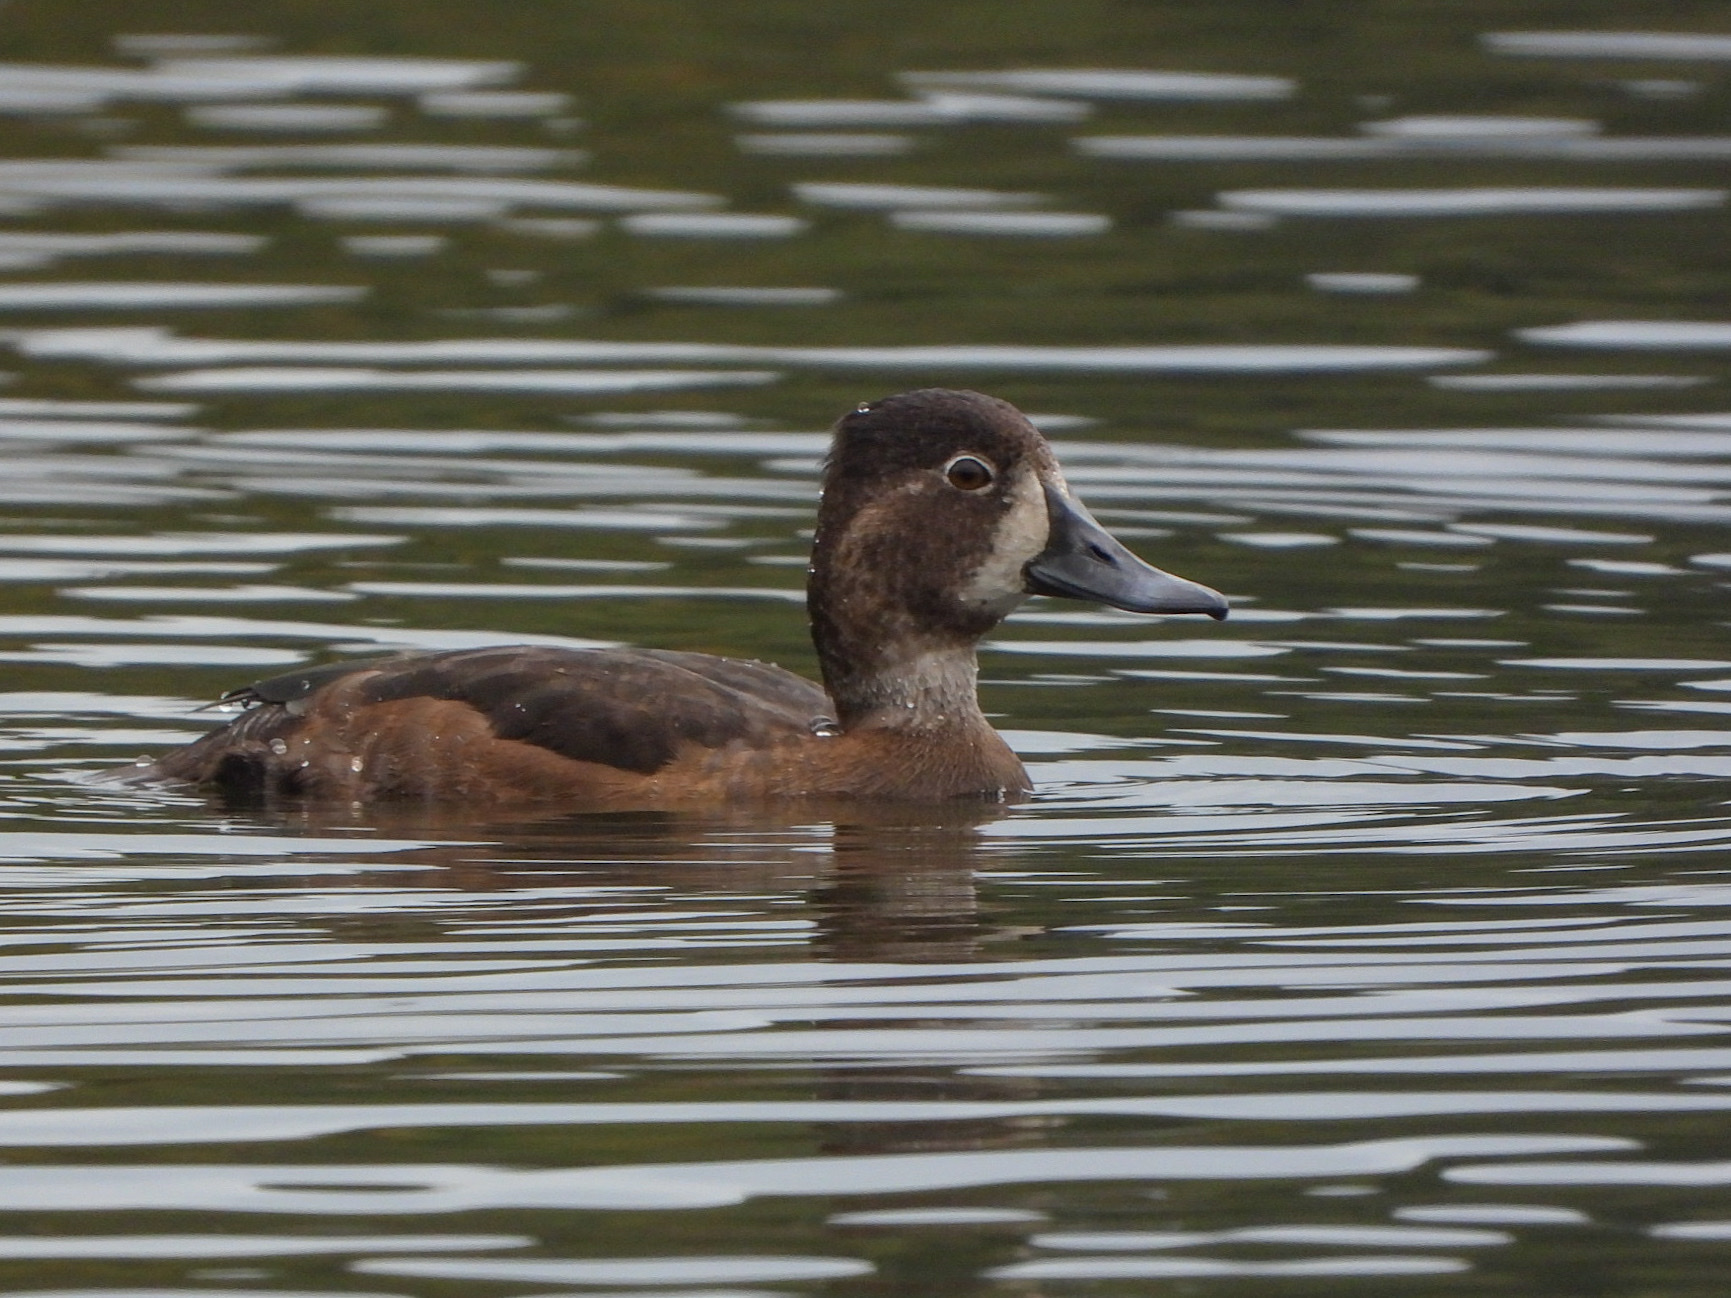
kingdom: Animalia
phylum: Chordata
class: Aves
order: Anseriformes
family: Anatidae
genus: Aythya
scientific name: Aythya collaris
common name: Ring-necked duck
